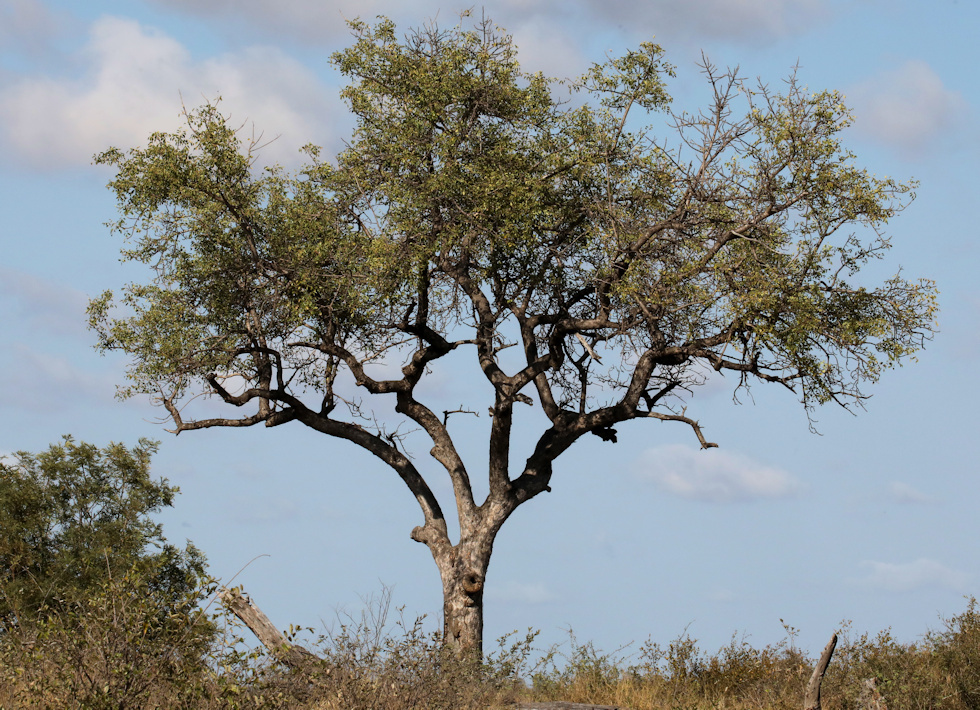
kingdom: Plantae
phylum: Tracheophyta
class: Magnoliopsida
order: Sapindales
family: Anacardiaceae
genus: Sclerocarya
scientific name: Sclerocarya birrea
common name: Marula
